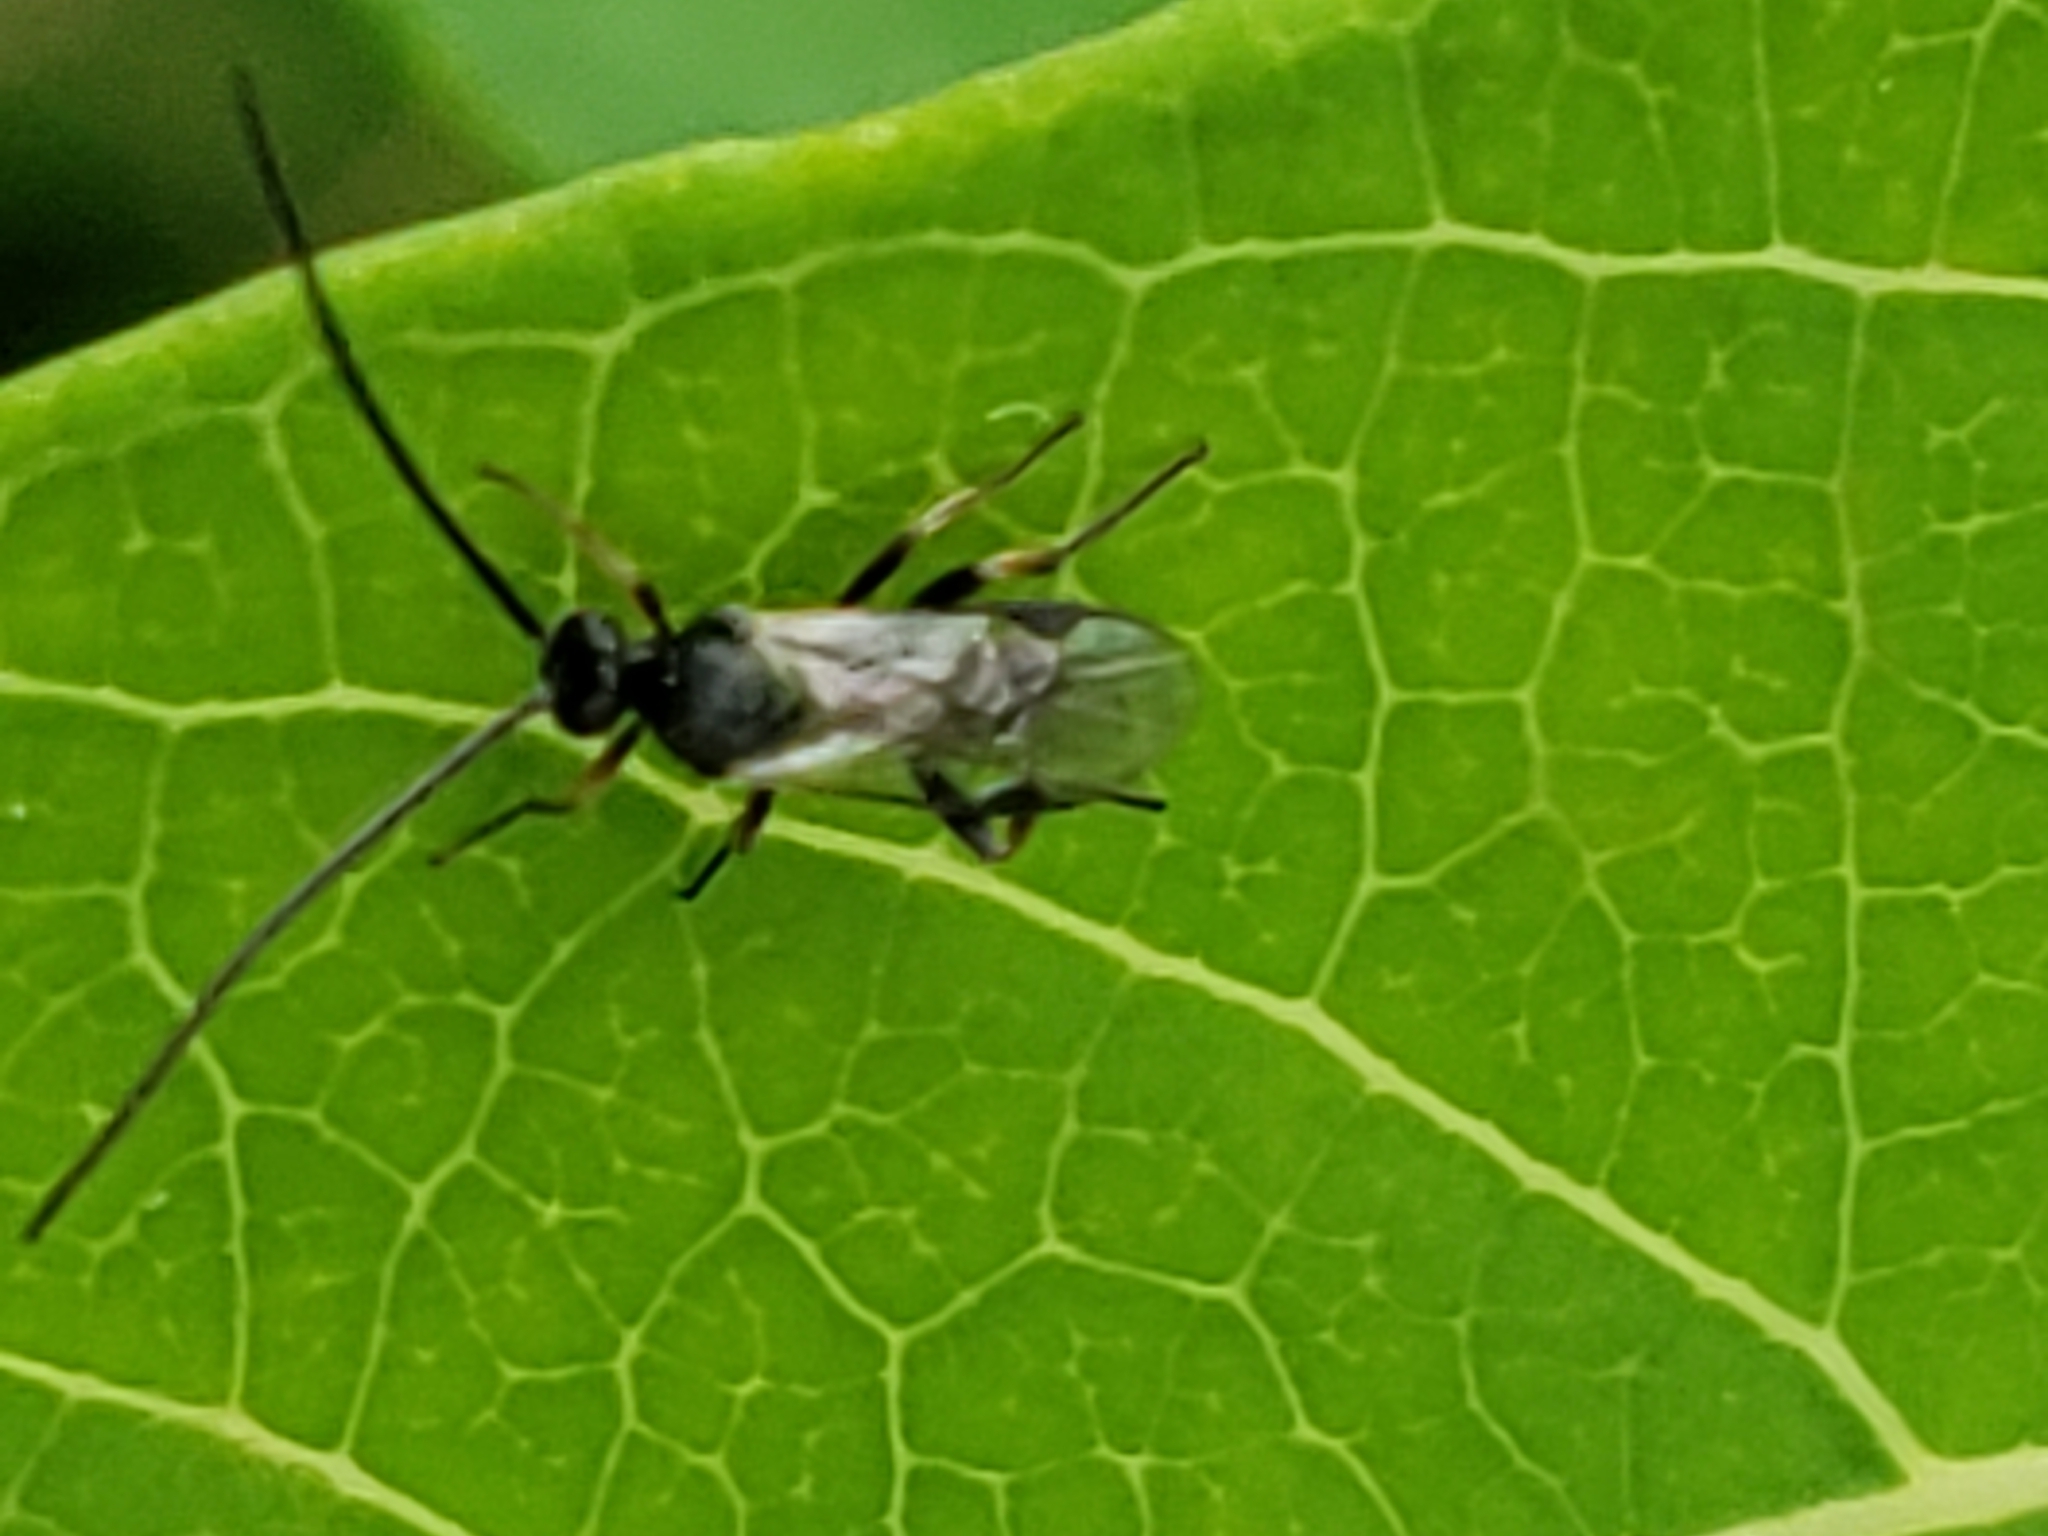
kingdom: Animalia
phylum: Arthropoda
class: Insecta
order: Hymenoptera
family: Braconidae
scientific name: Braconidae
